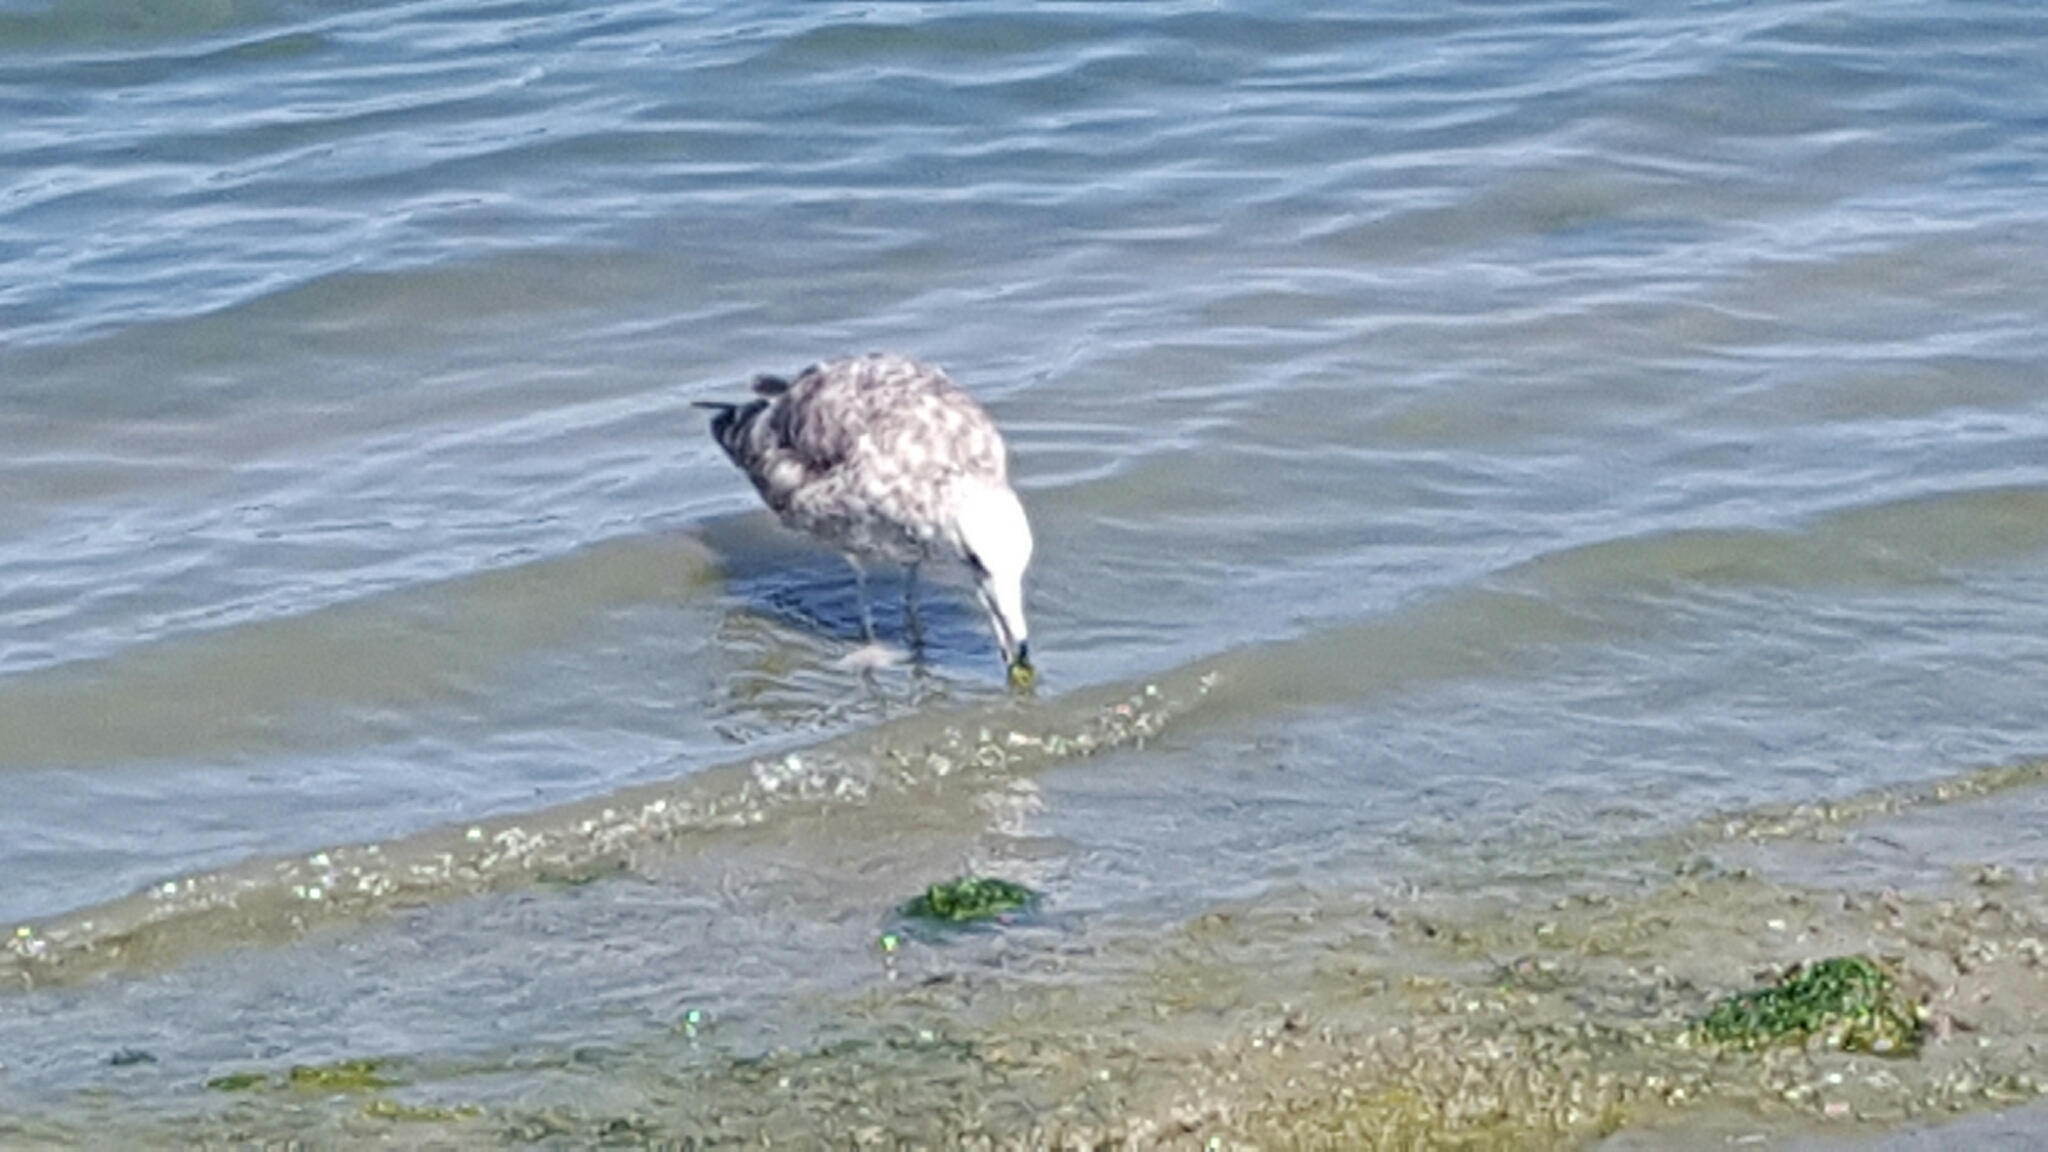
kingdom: Animalia
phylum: Chordata
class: Aves
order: Charadriiformes
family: Laridae
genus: Larus
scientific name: Larus californicus
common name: California gull
